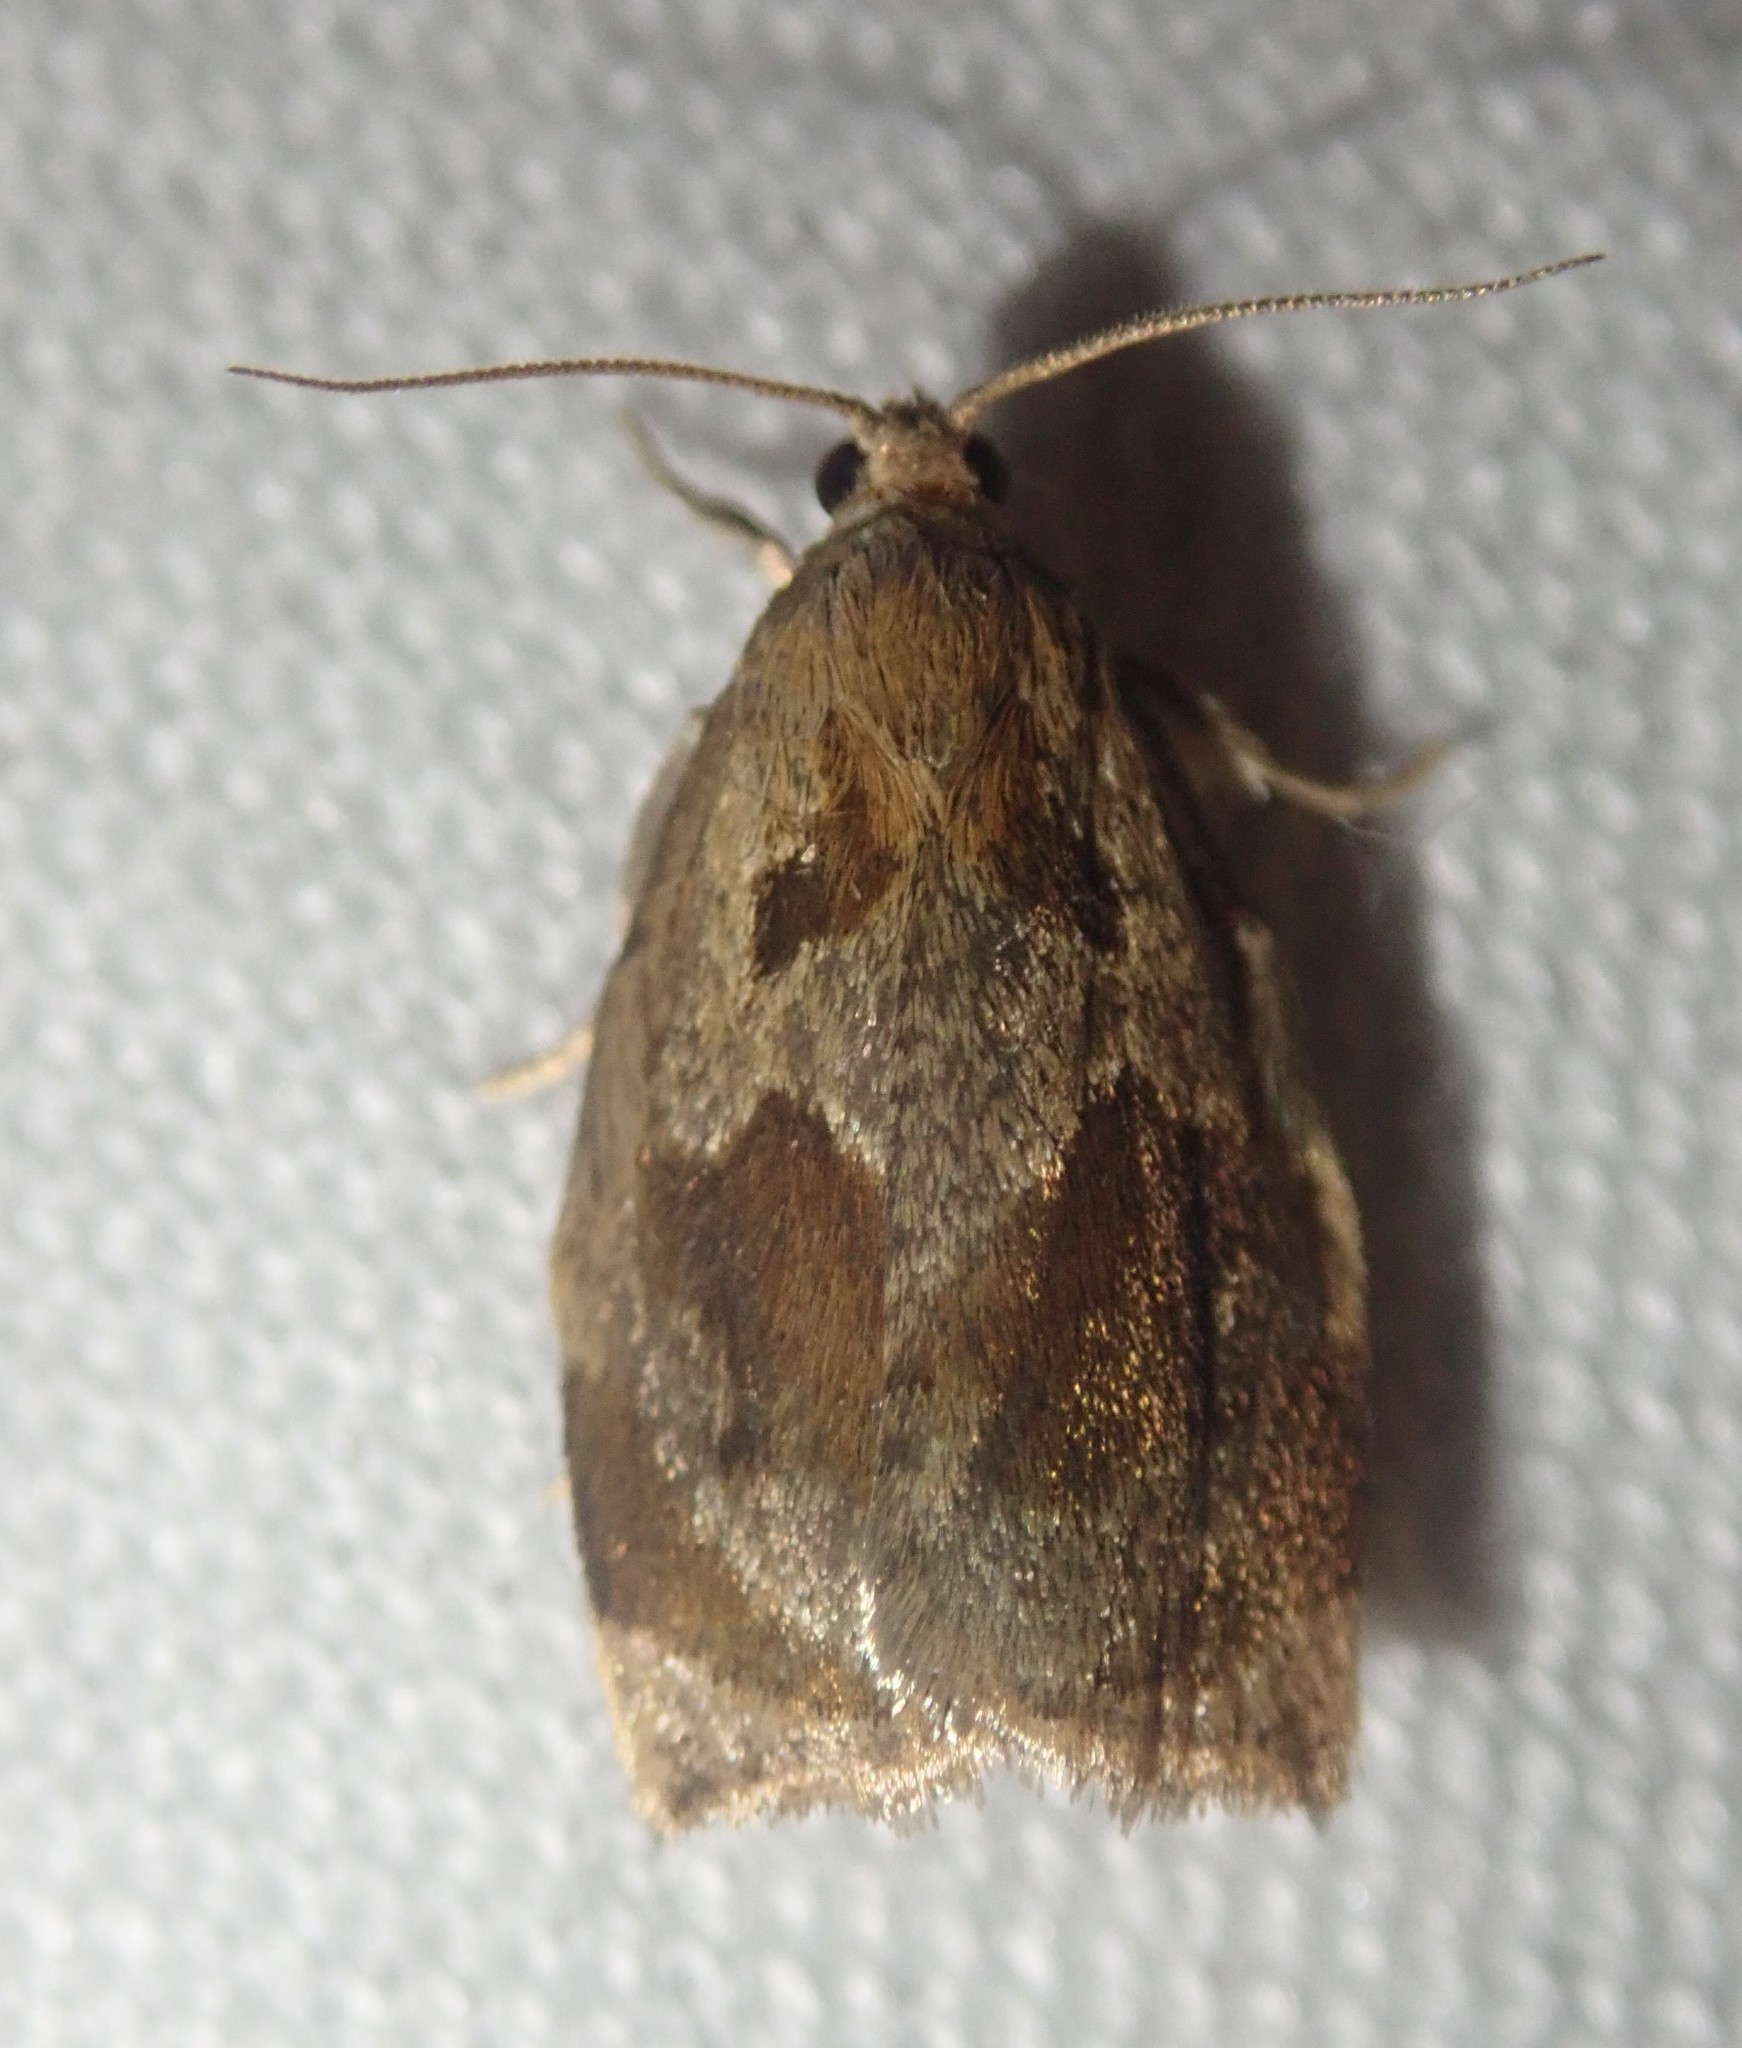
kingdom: Animalia
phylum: Arthropoda
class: Insecta
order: Lepidoptera
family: Tortricidae
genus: Archips
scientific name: Archips crataegana
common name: Brown oak tortrix
